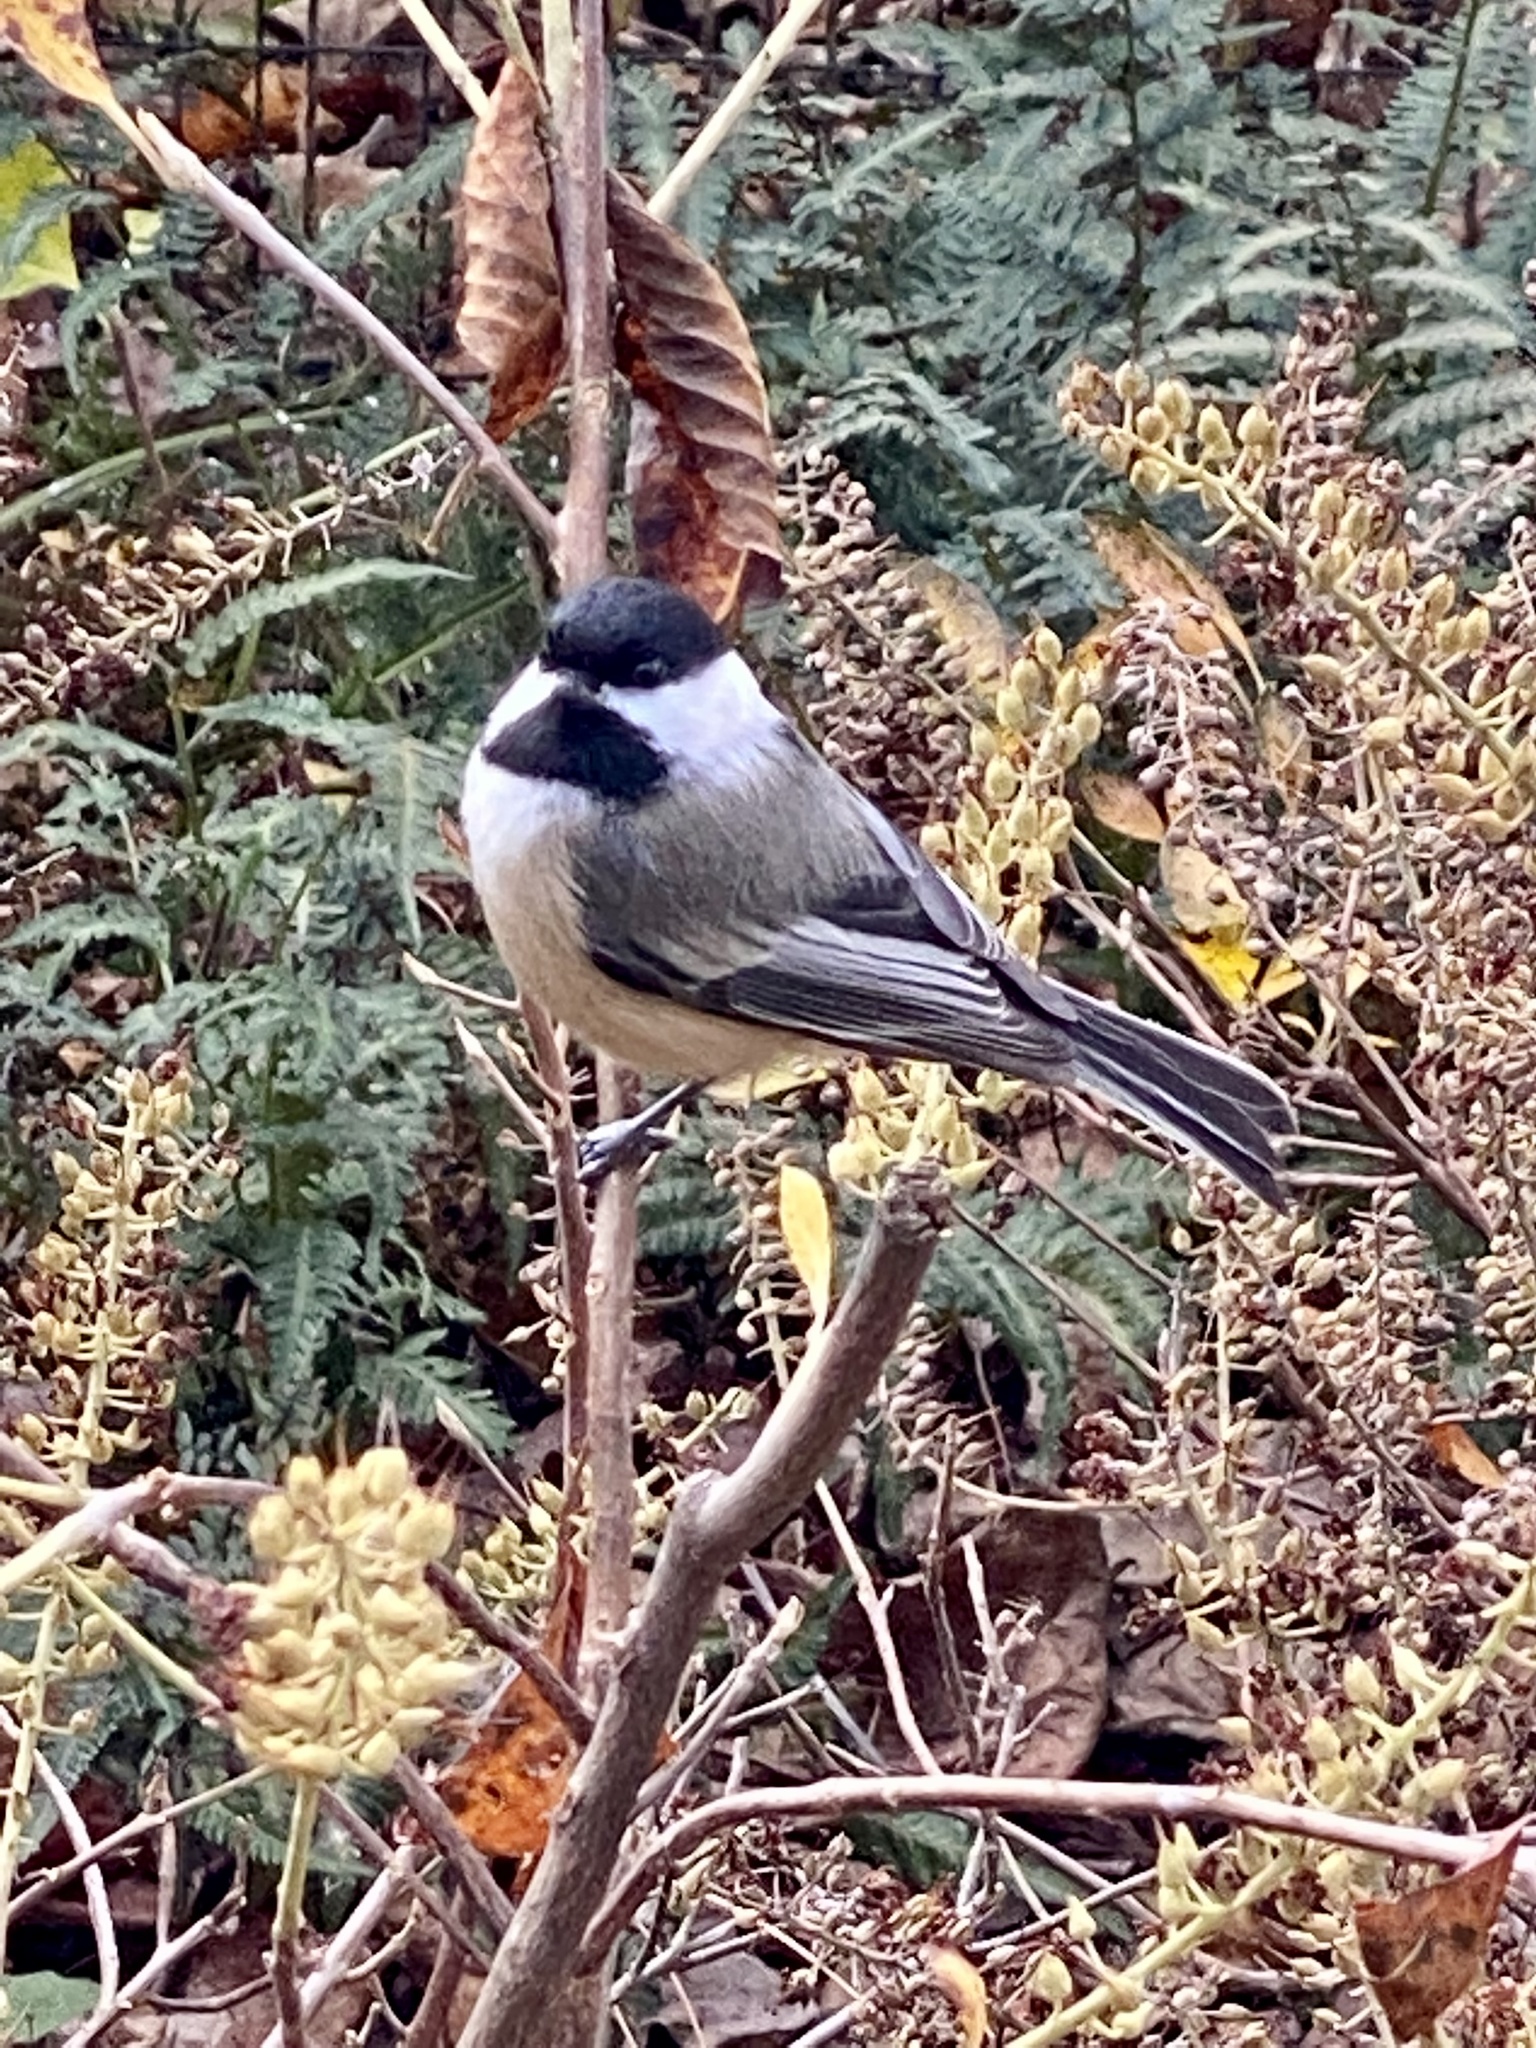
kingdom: Animalia
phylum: Chordata
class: Aves
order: Passeriformes
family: Paridae
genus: Poecile
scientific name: Poecile atricapillus
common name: Black-capped chickadee
